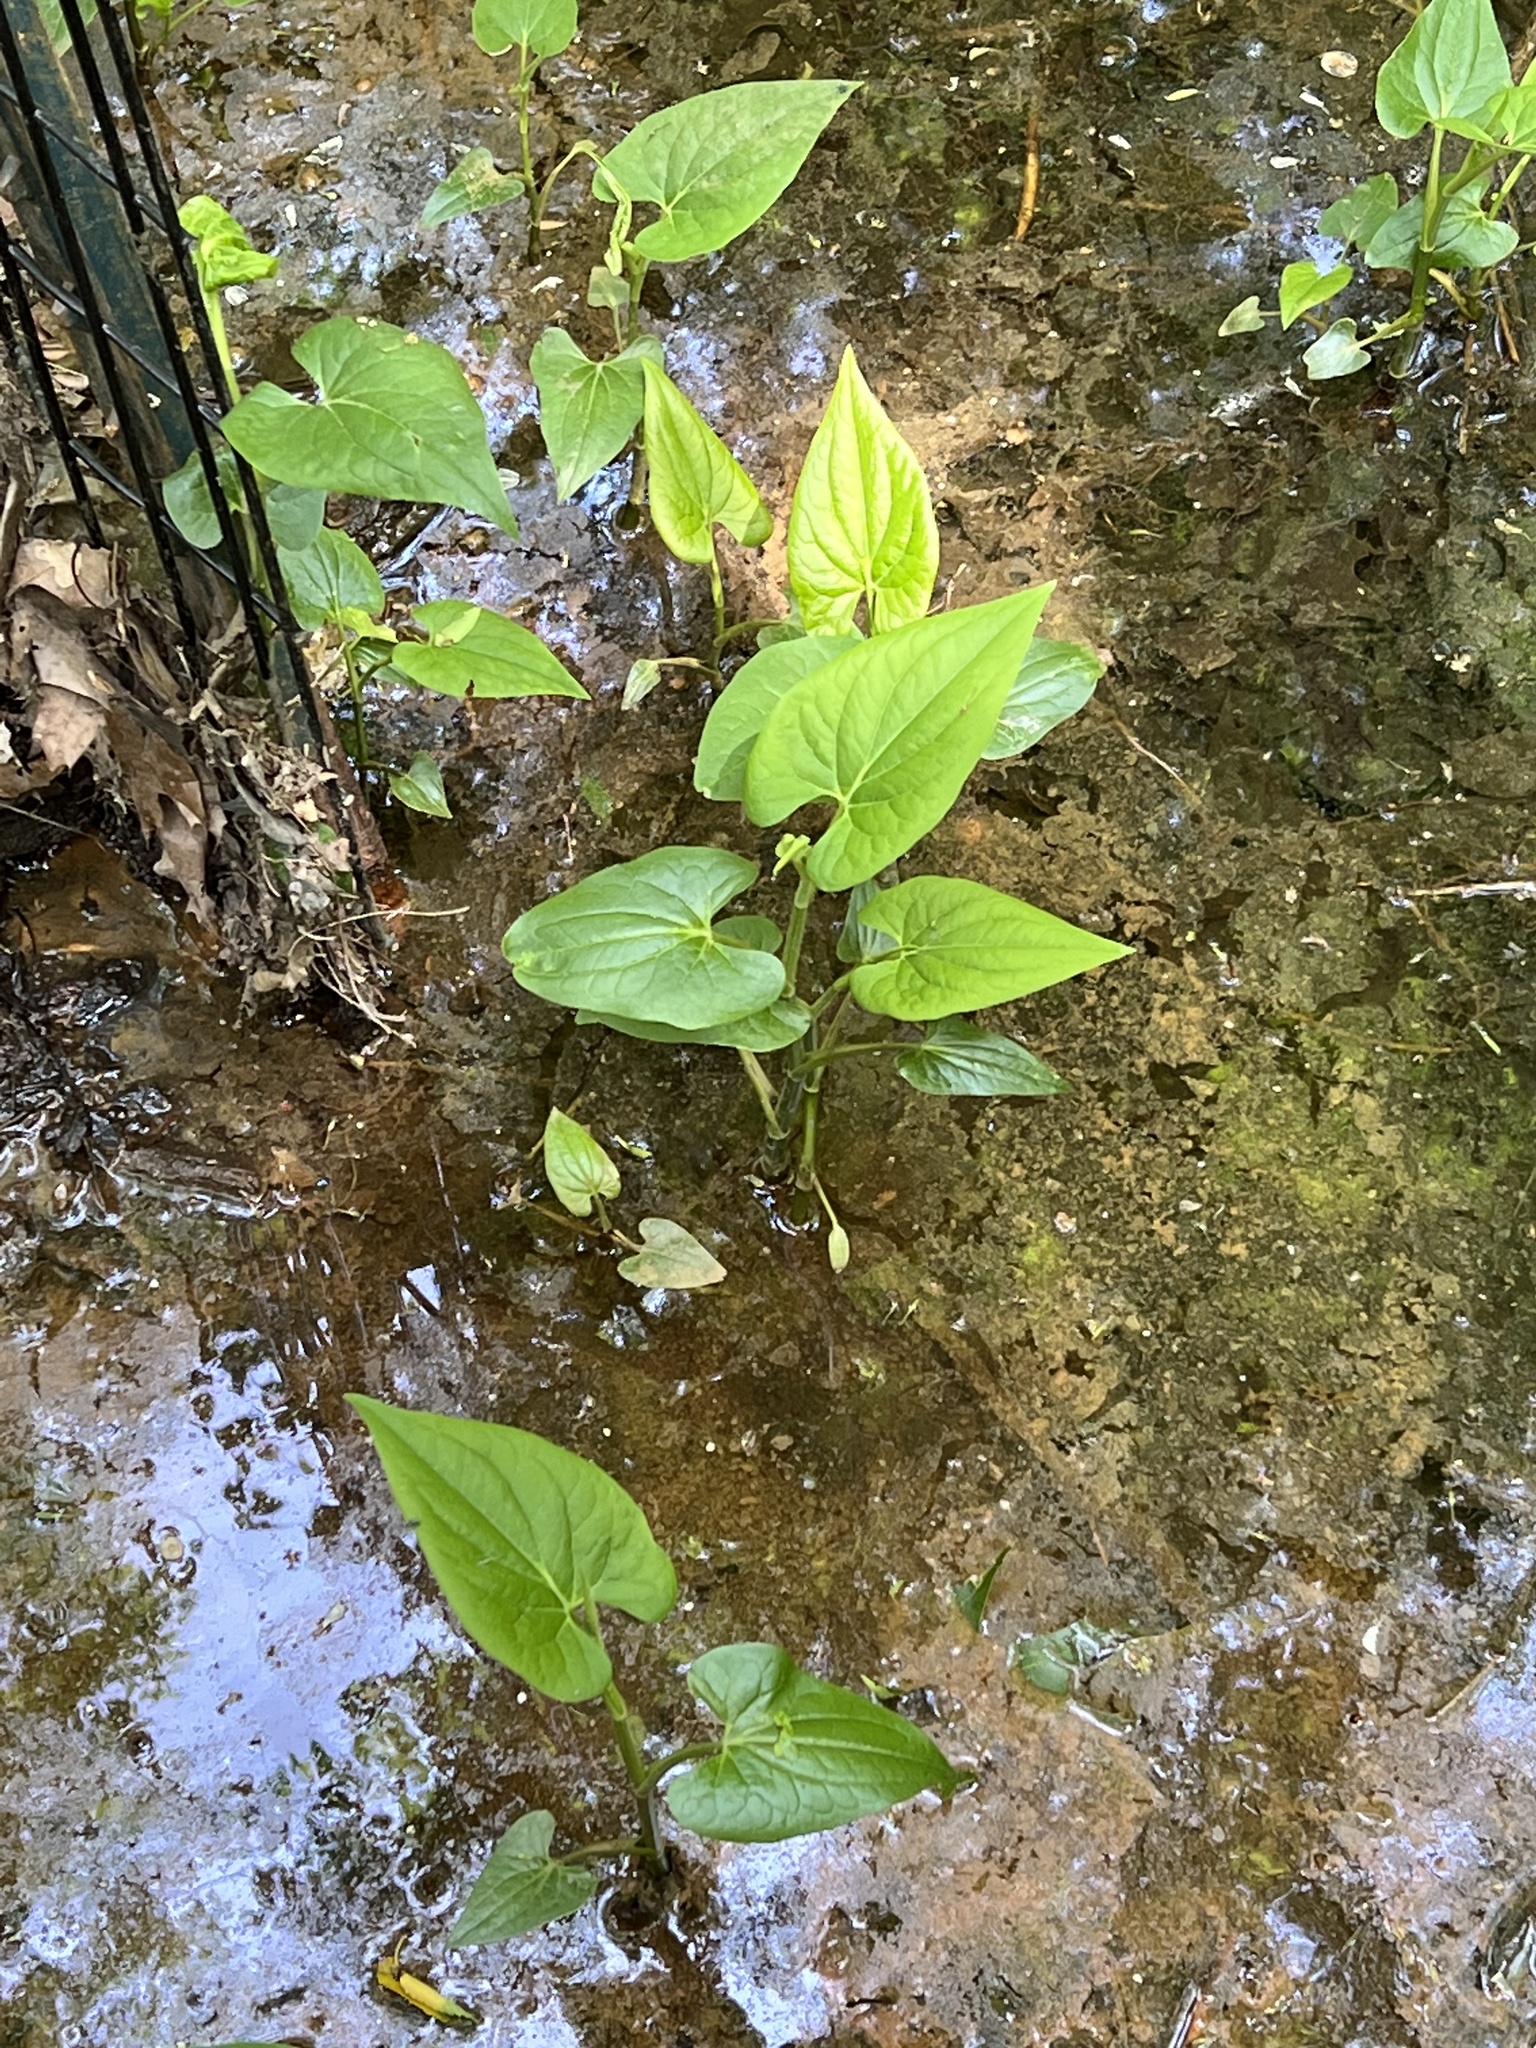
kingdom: Plantae
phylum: Tracheophyta
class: Magnoliopsida
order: Piperales
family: Saururaceae
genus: Saururus
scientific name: Saururus cernuus
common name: Lizard's-tail
